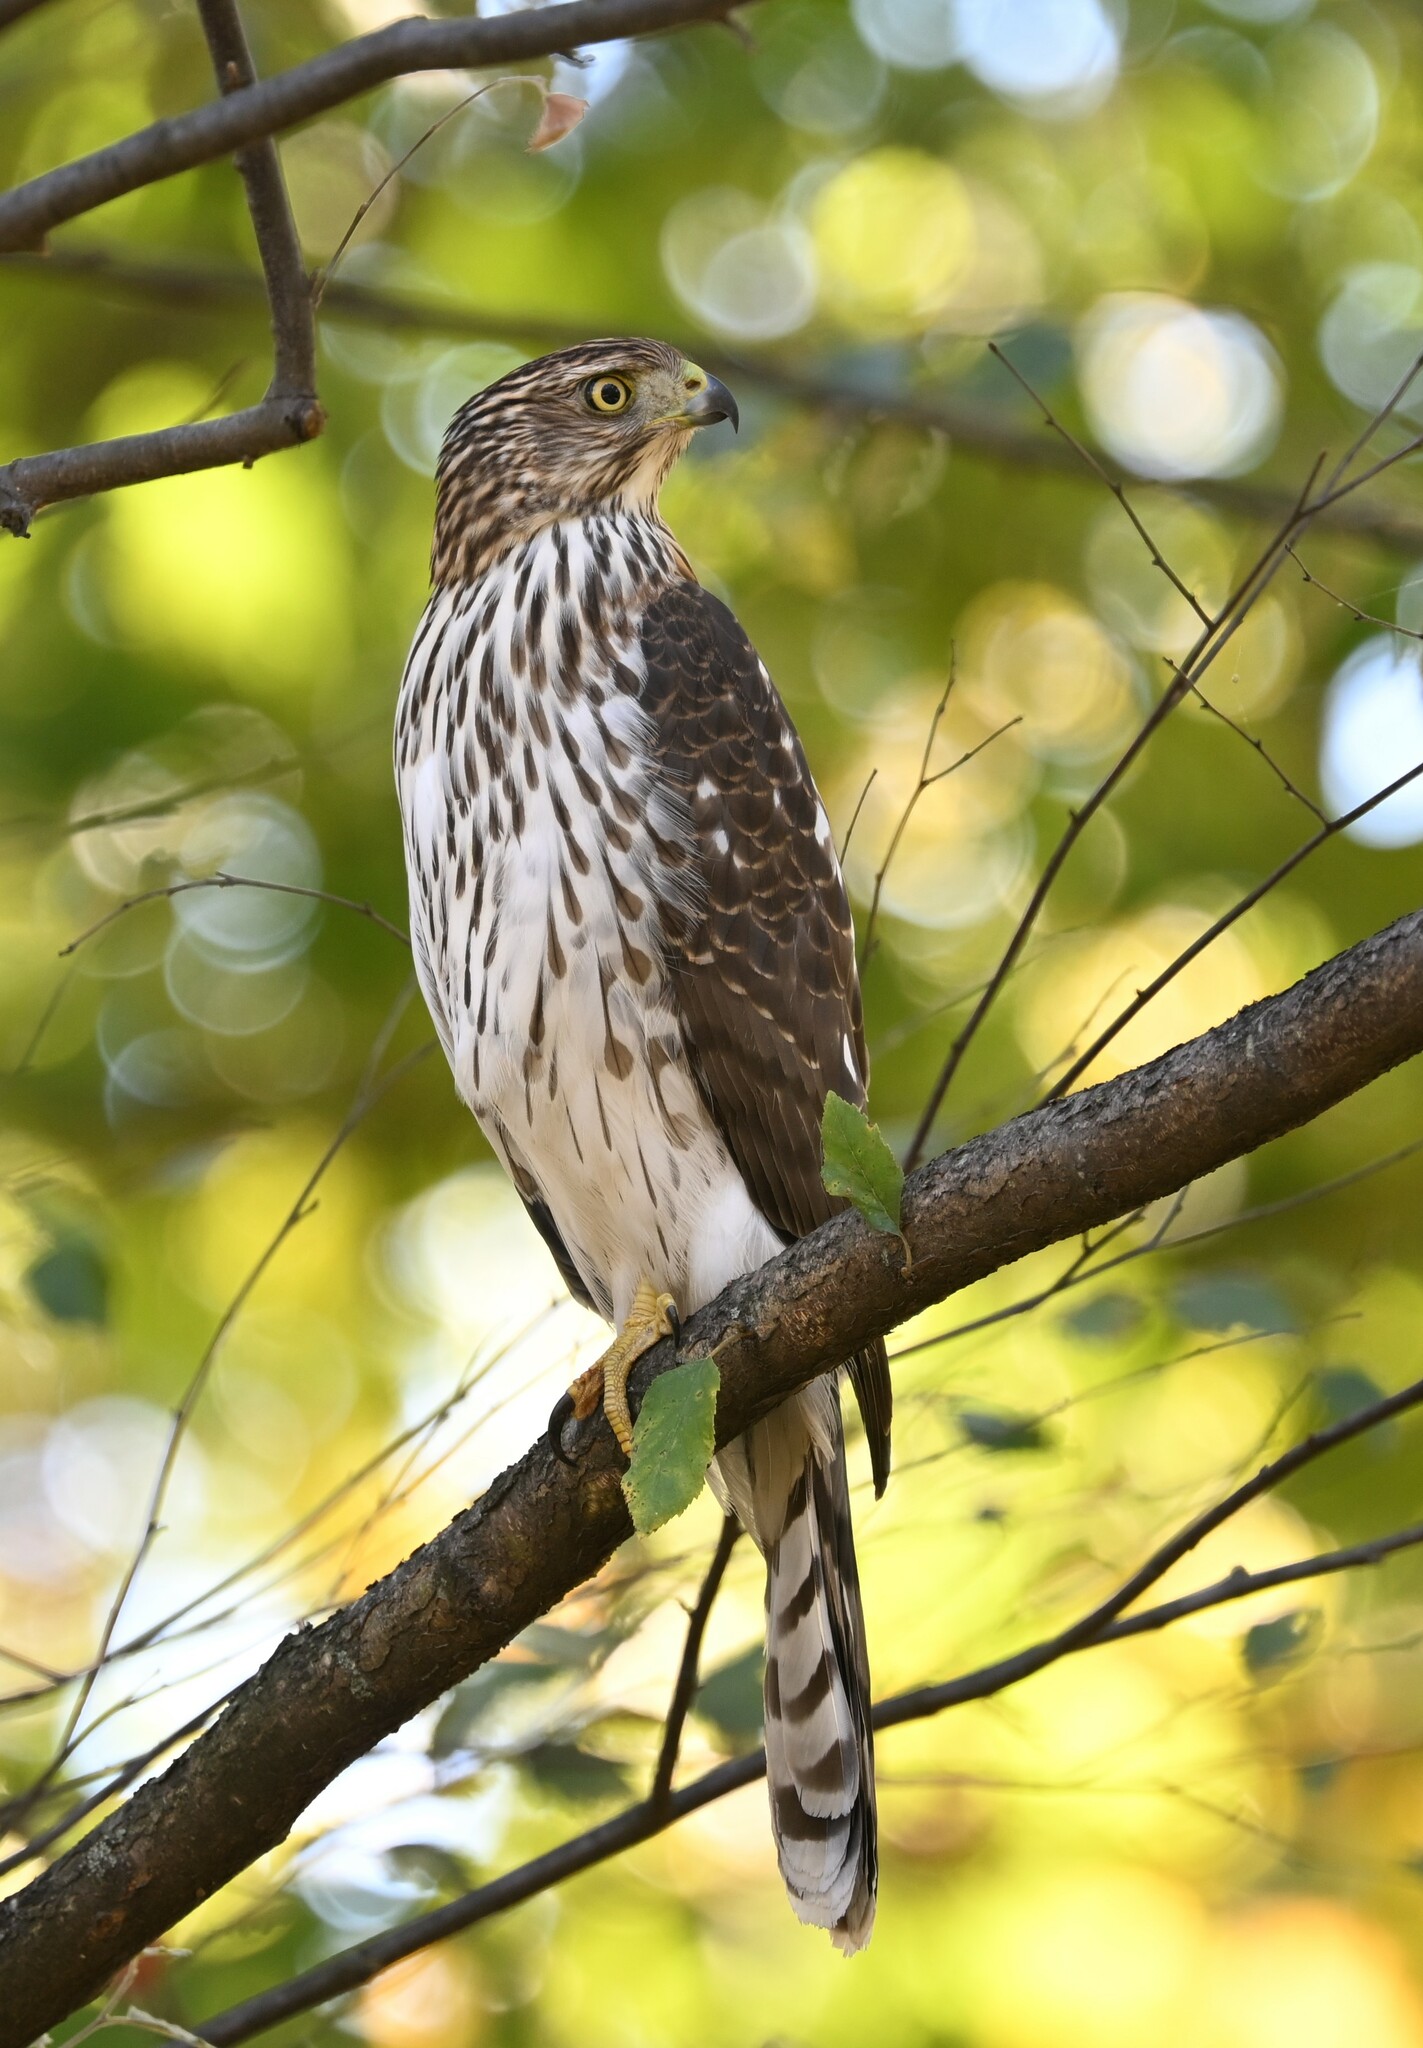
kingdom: Animalia
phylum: Chordata
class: Aves
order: Accipitriformes
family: Accipitridae
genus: Accipiter
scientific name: Accipiter cooperii
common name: Cooper's hawk
